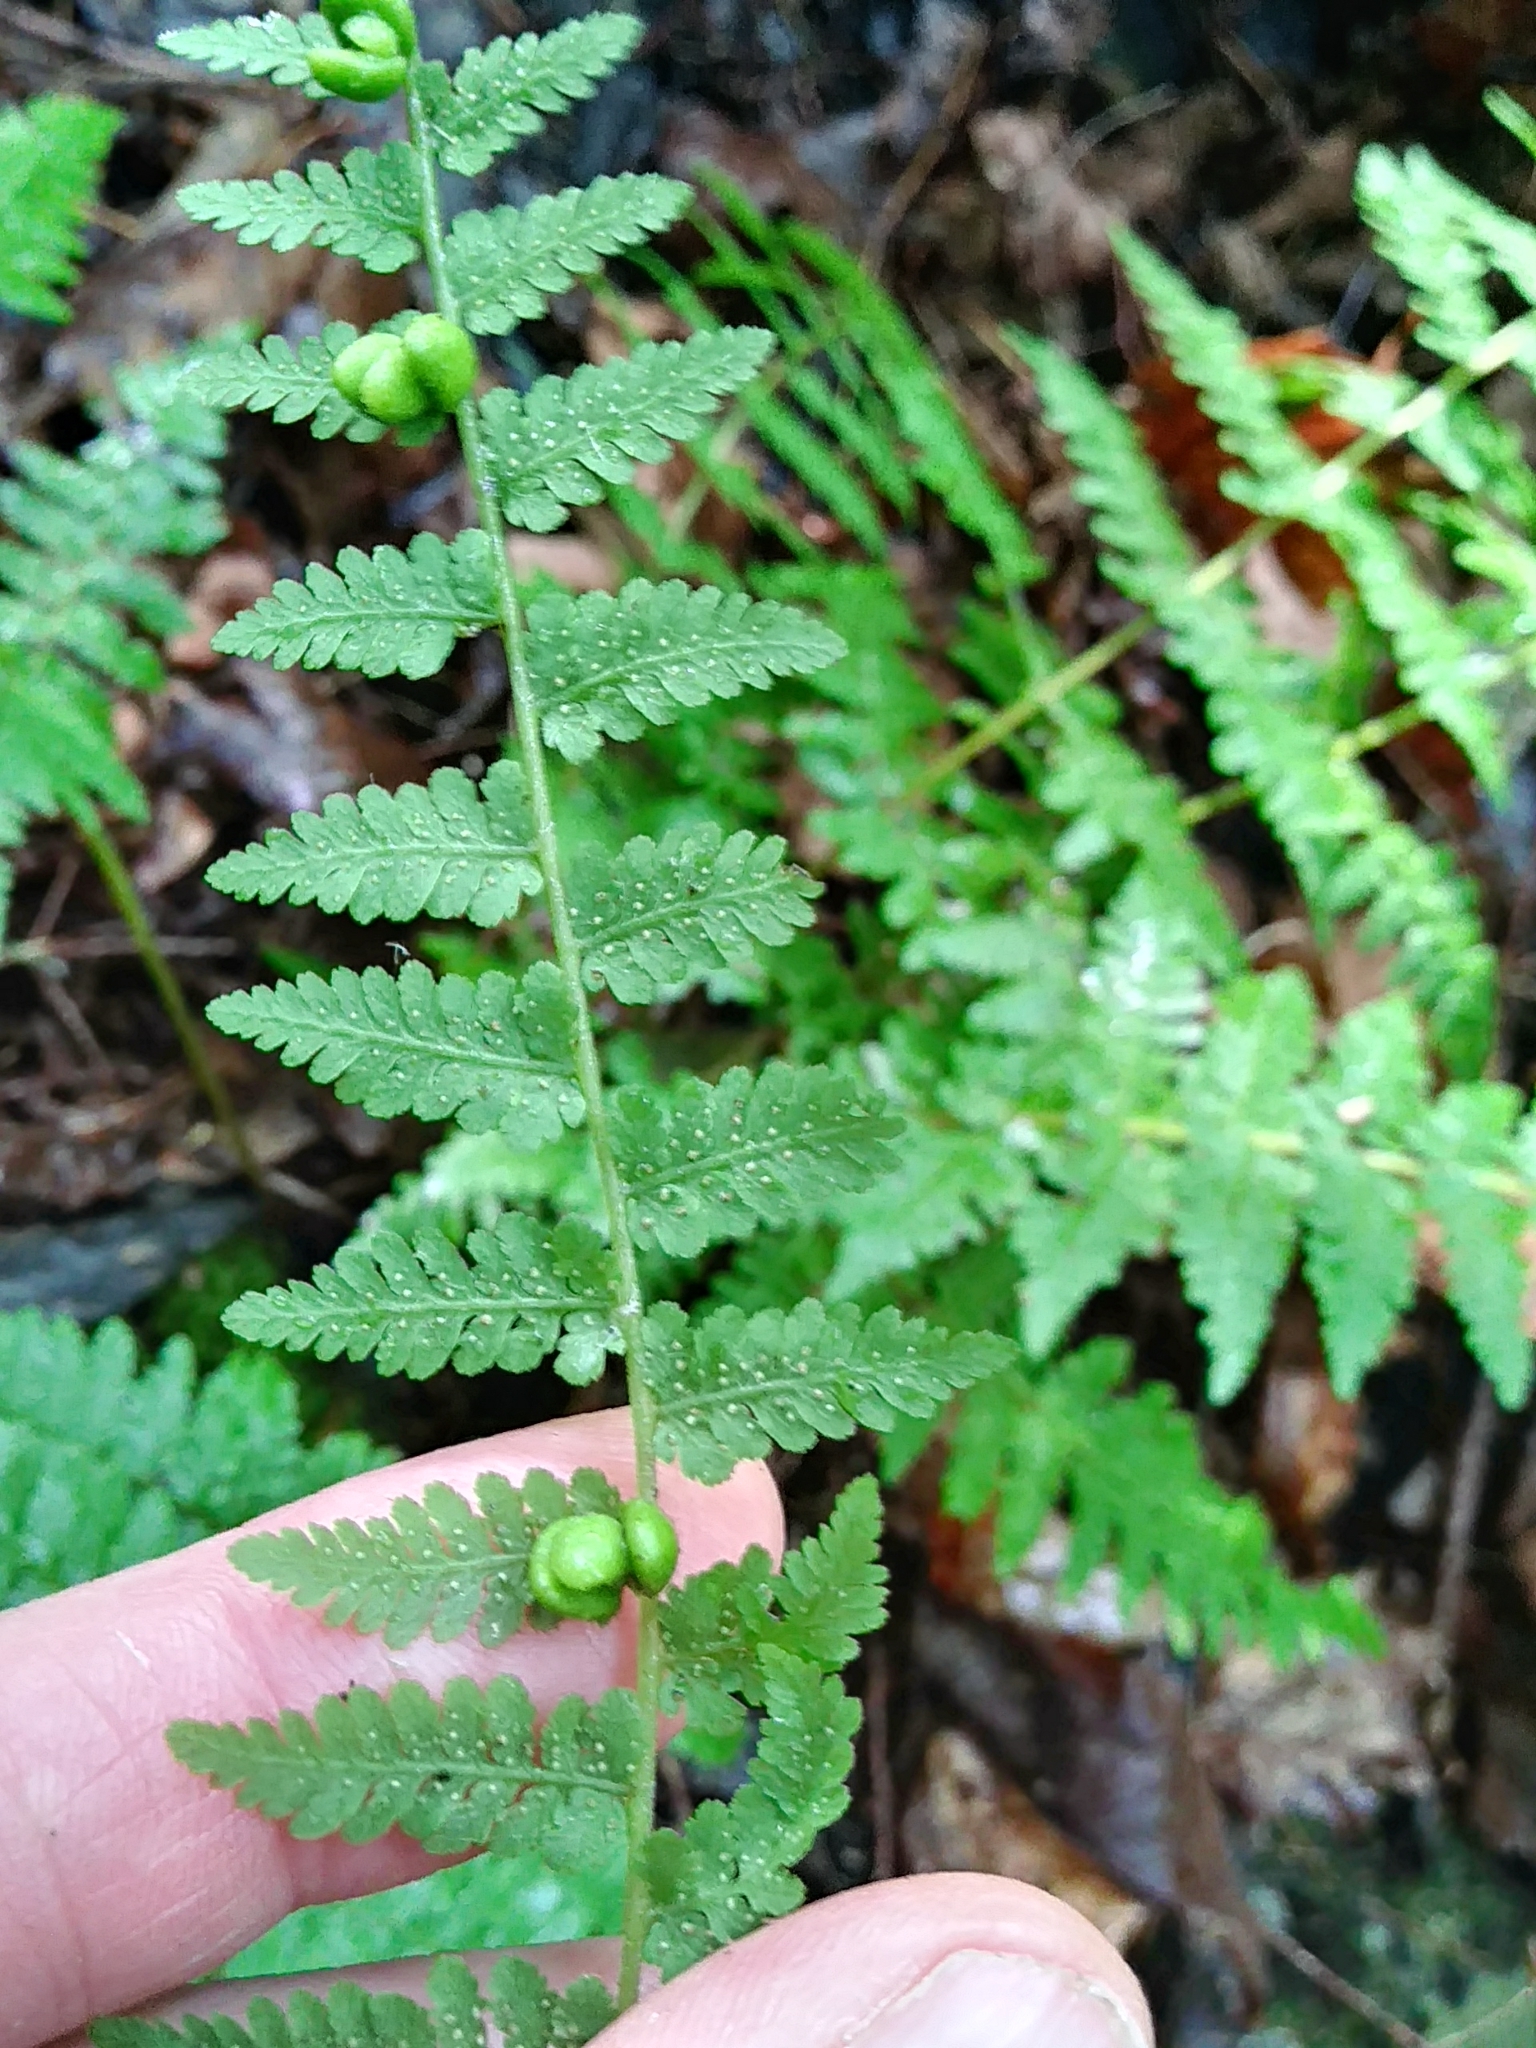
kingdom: Plantae
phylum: Tracheophyta
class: Polypodiopsida
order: Polypodiales
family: Cystopteridaceae
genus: Cystopteris
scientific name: Cystopteris bulbifera
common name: Bulblet bladder fern
